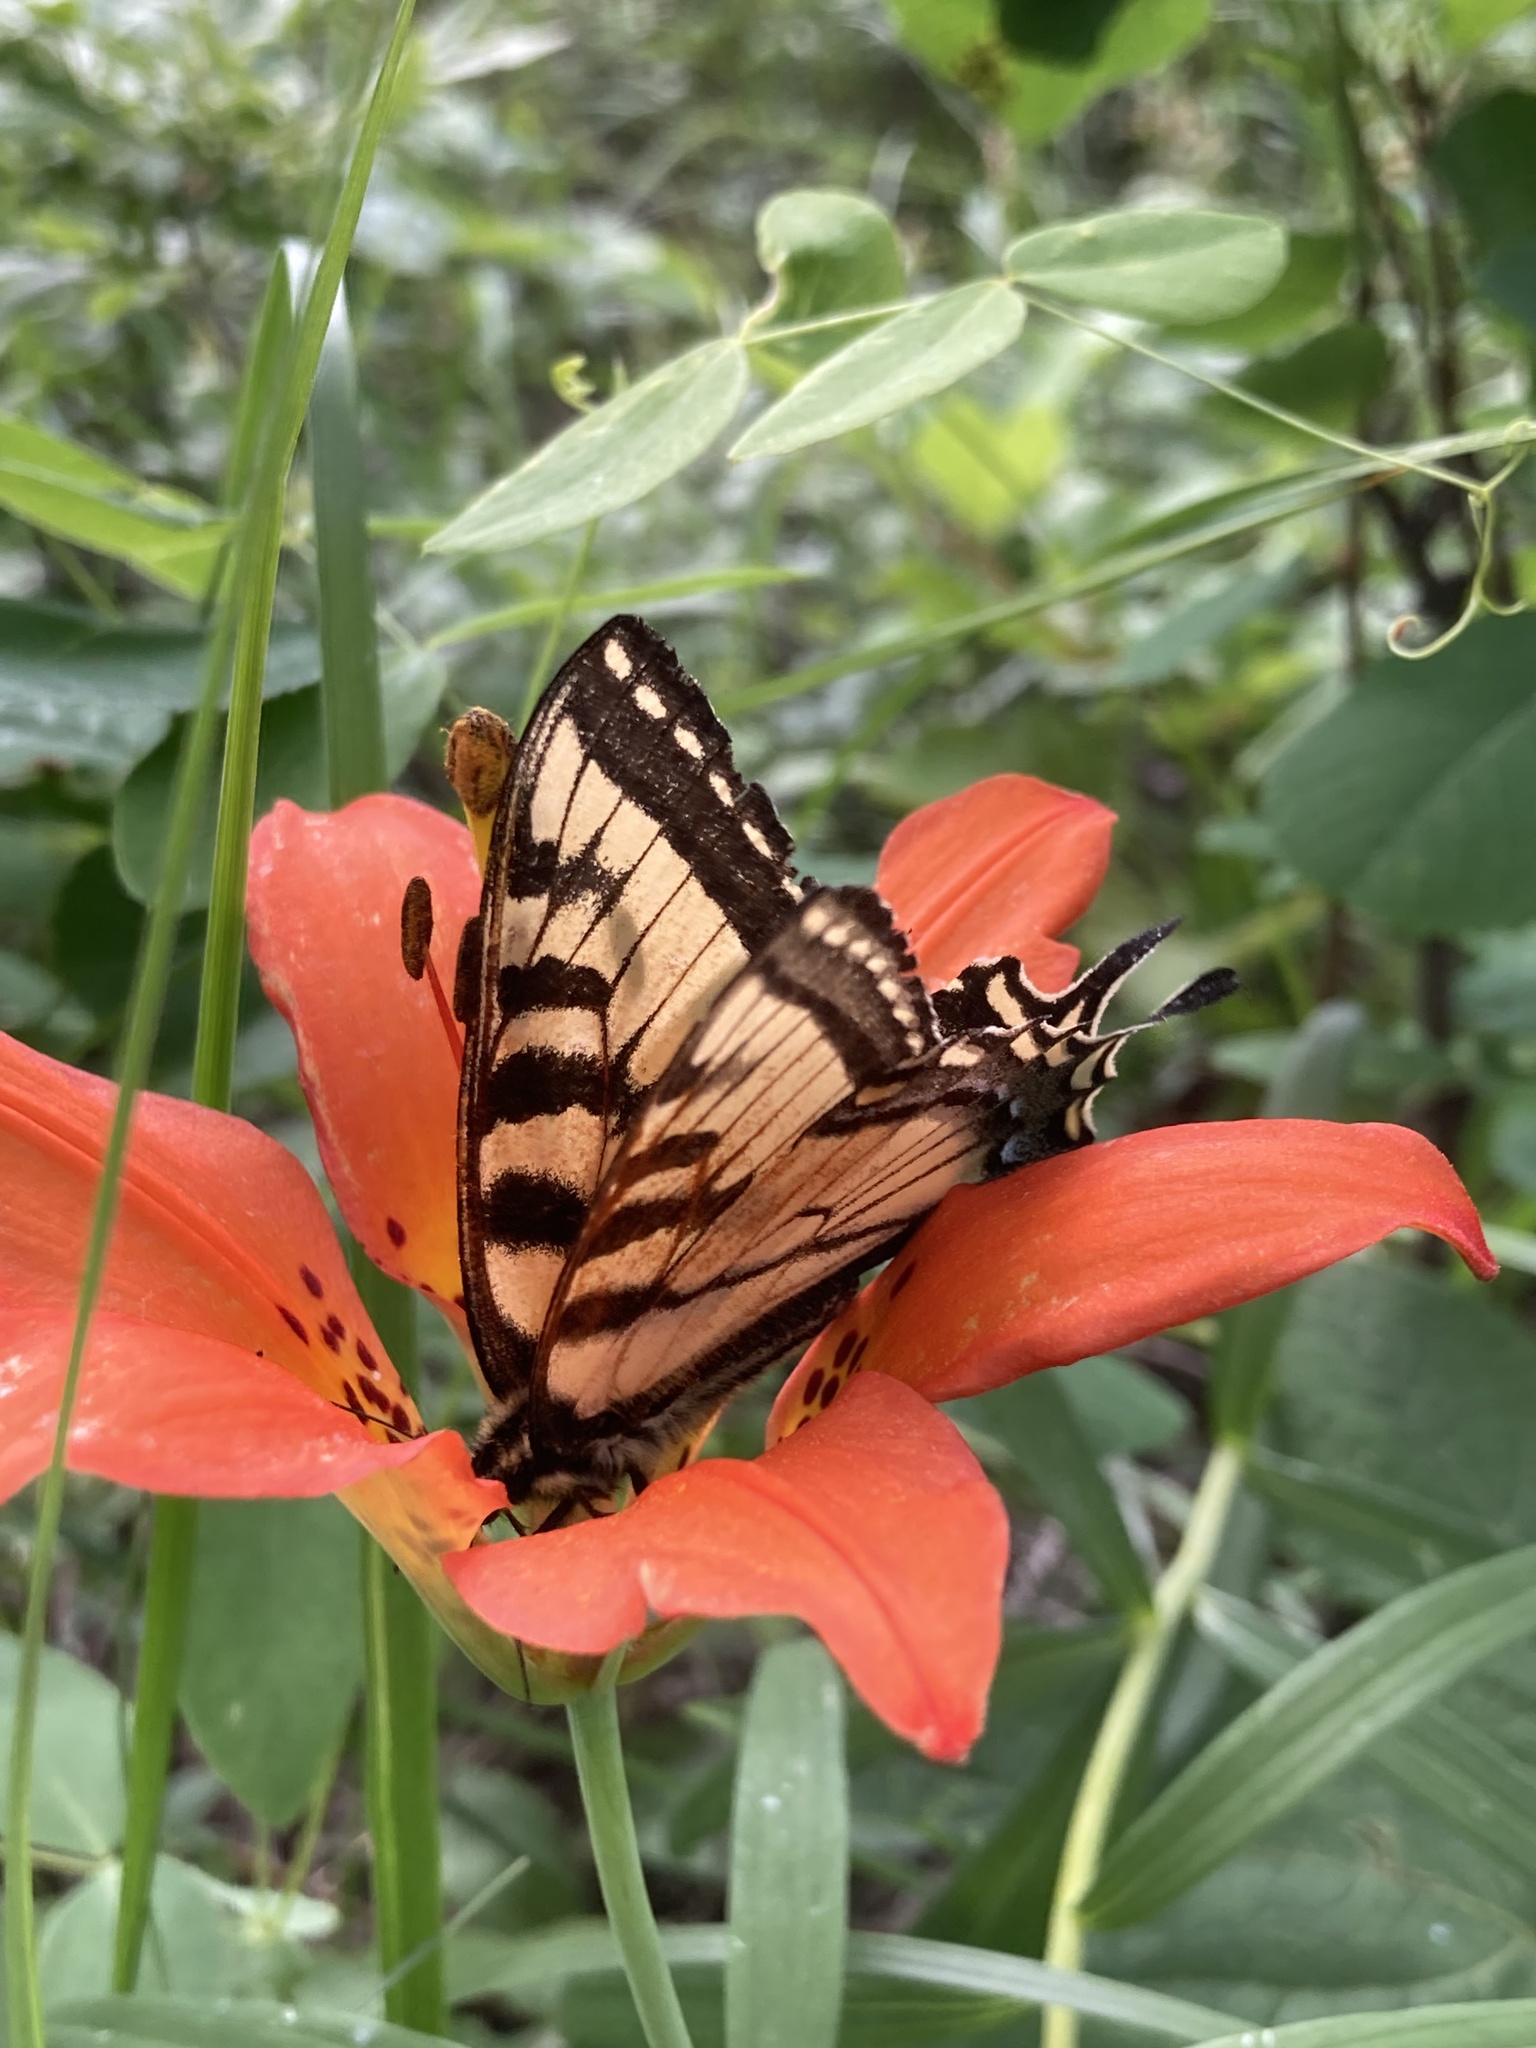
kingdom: Animalia
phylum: Arthropoda
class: Insecta
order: Lepidoptera
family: Papilionidae
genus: Papilio
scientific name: Papilio canadensis
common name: Canadian tiger swallowtail
